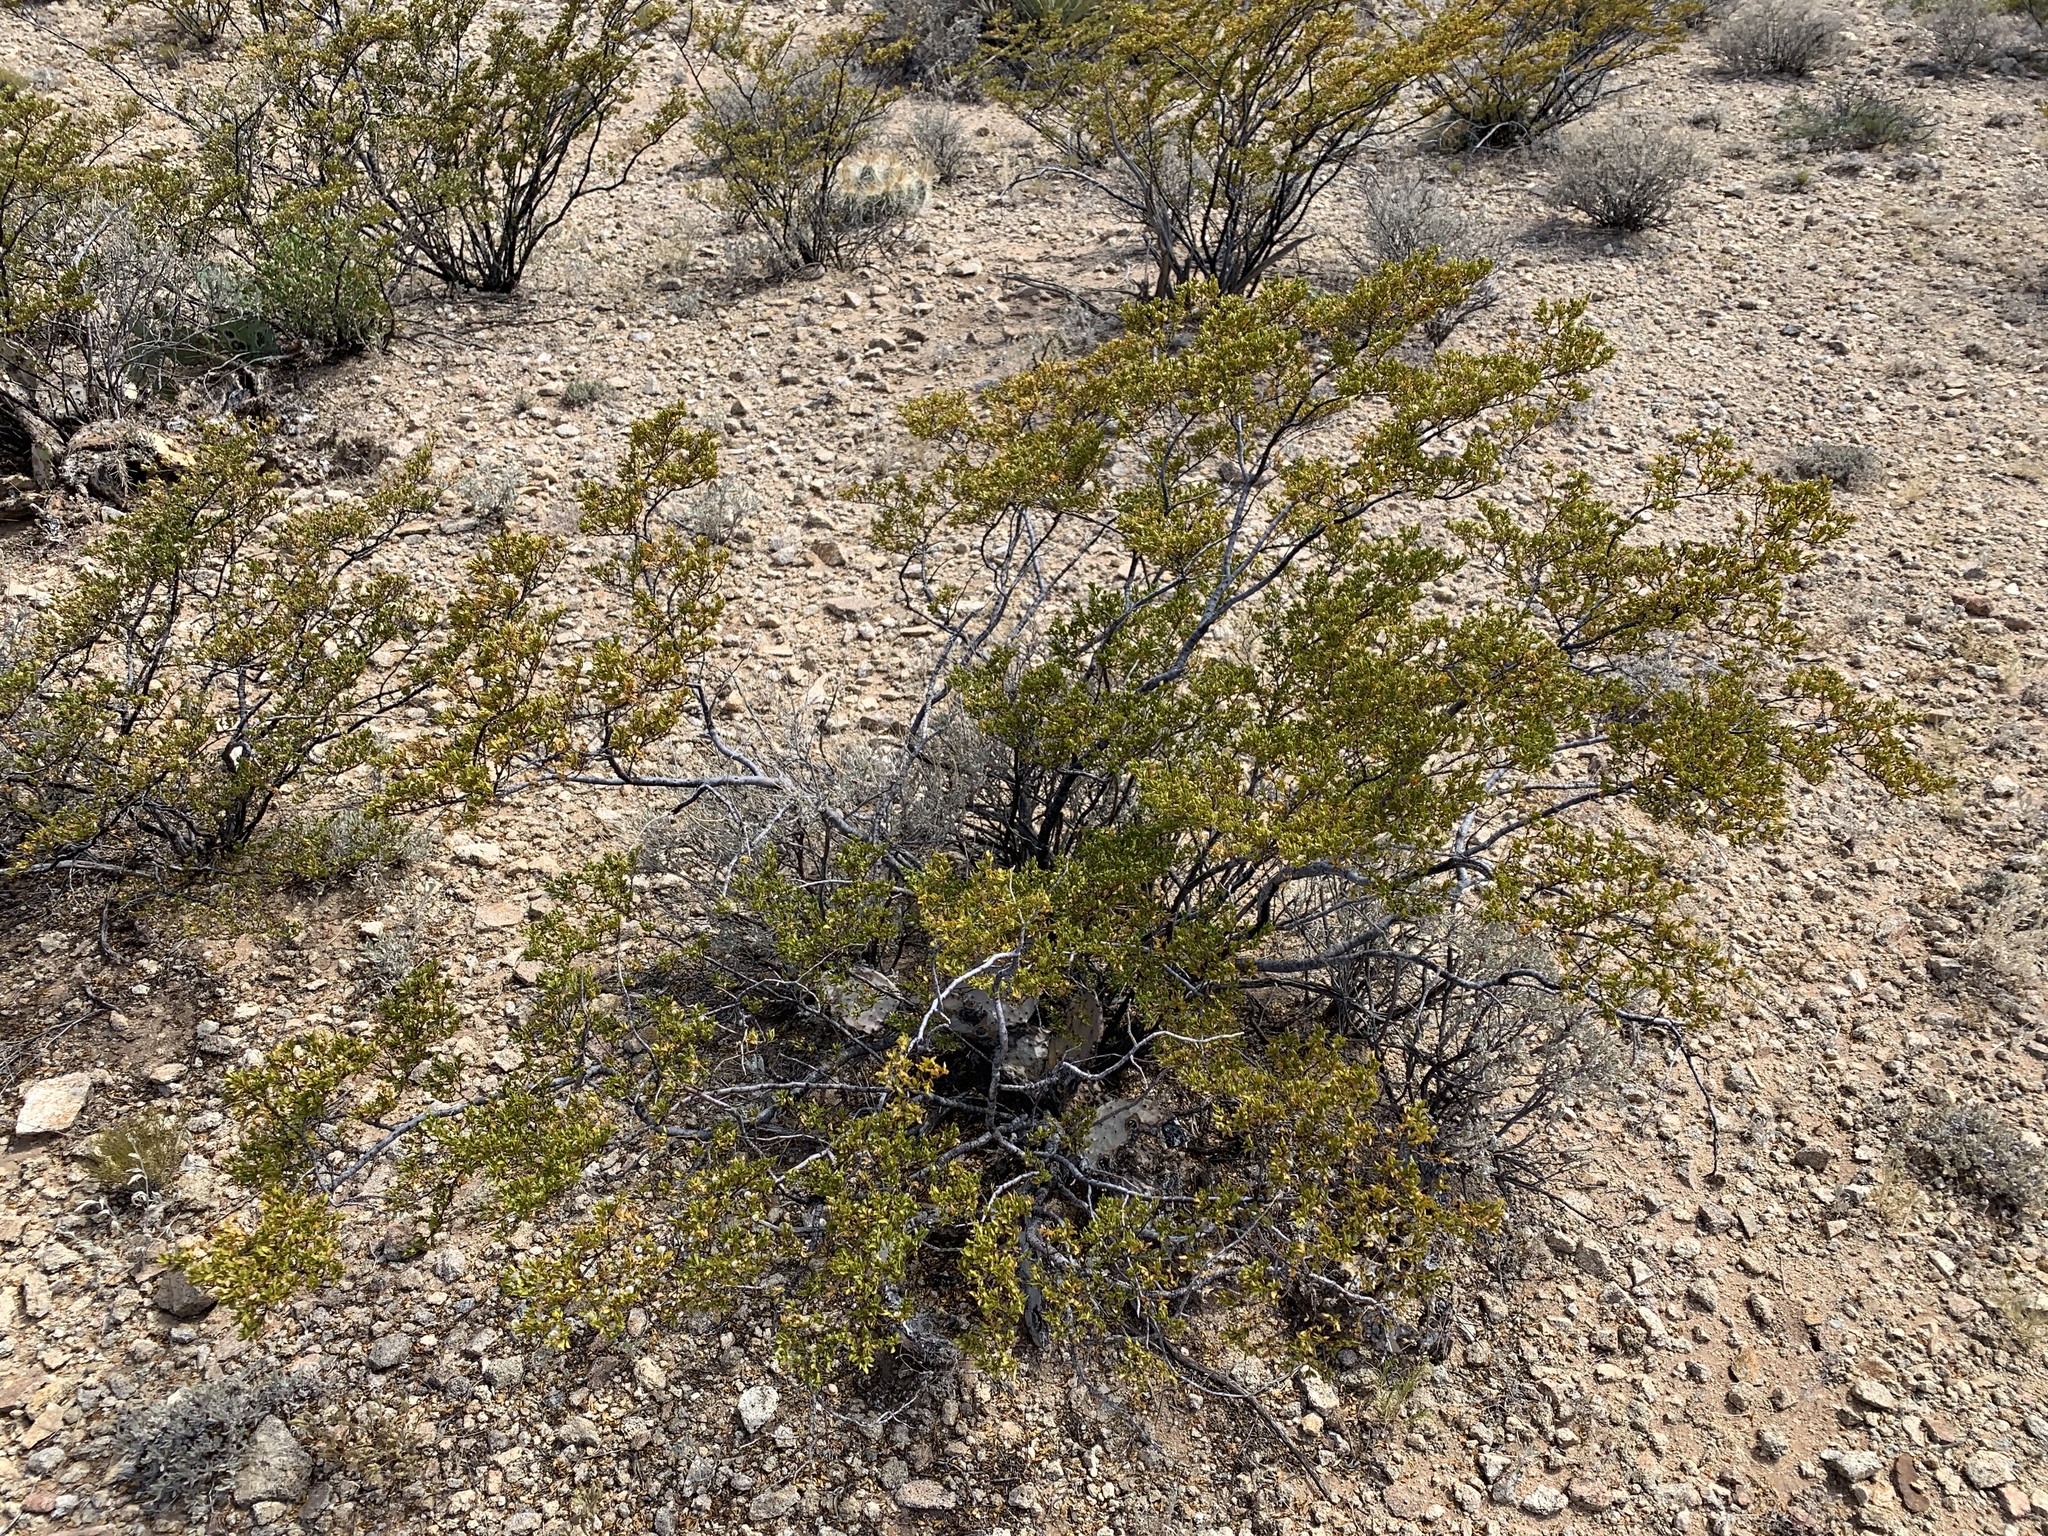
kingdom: Plantae
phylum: Tracheophyta
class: Magnoliopsida
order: Zygophyllales
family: Zygophyllaceae
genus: Larrea
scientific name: Larrea tridentata
